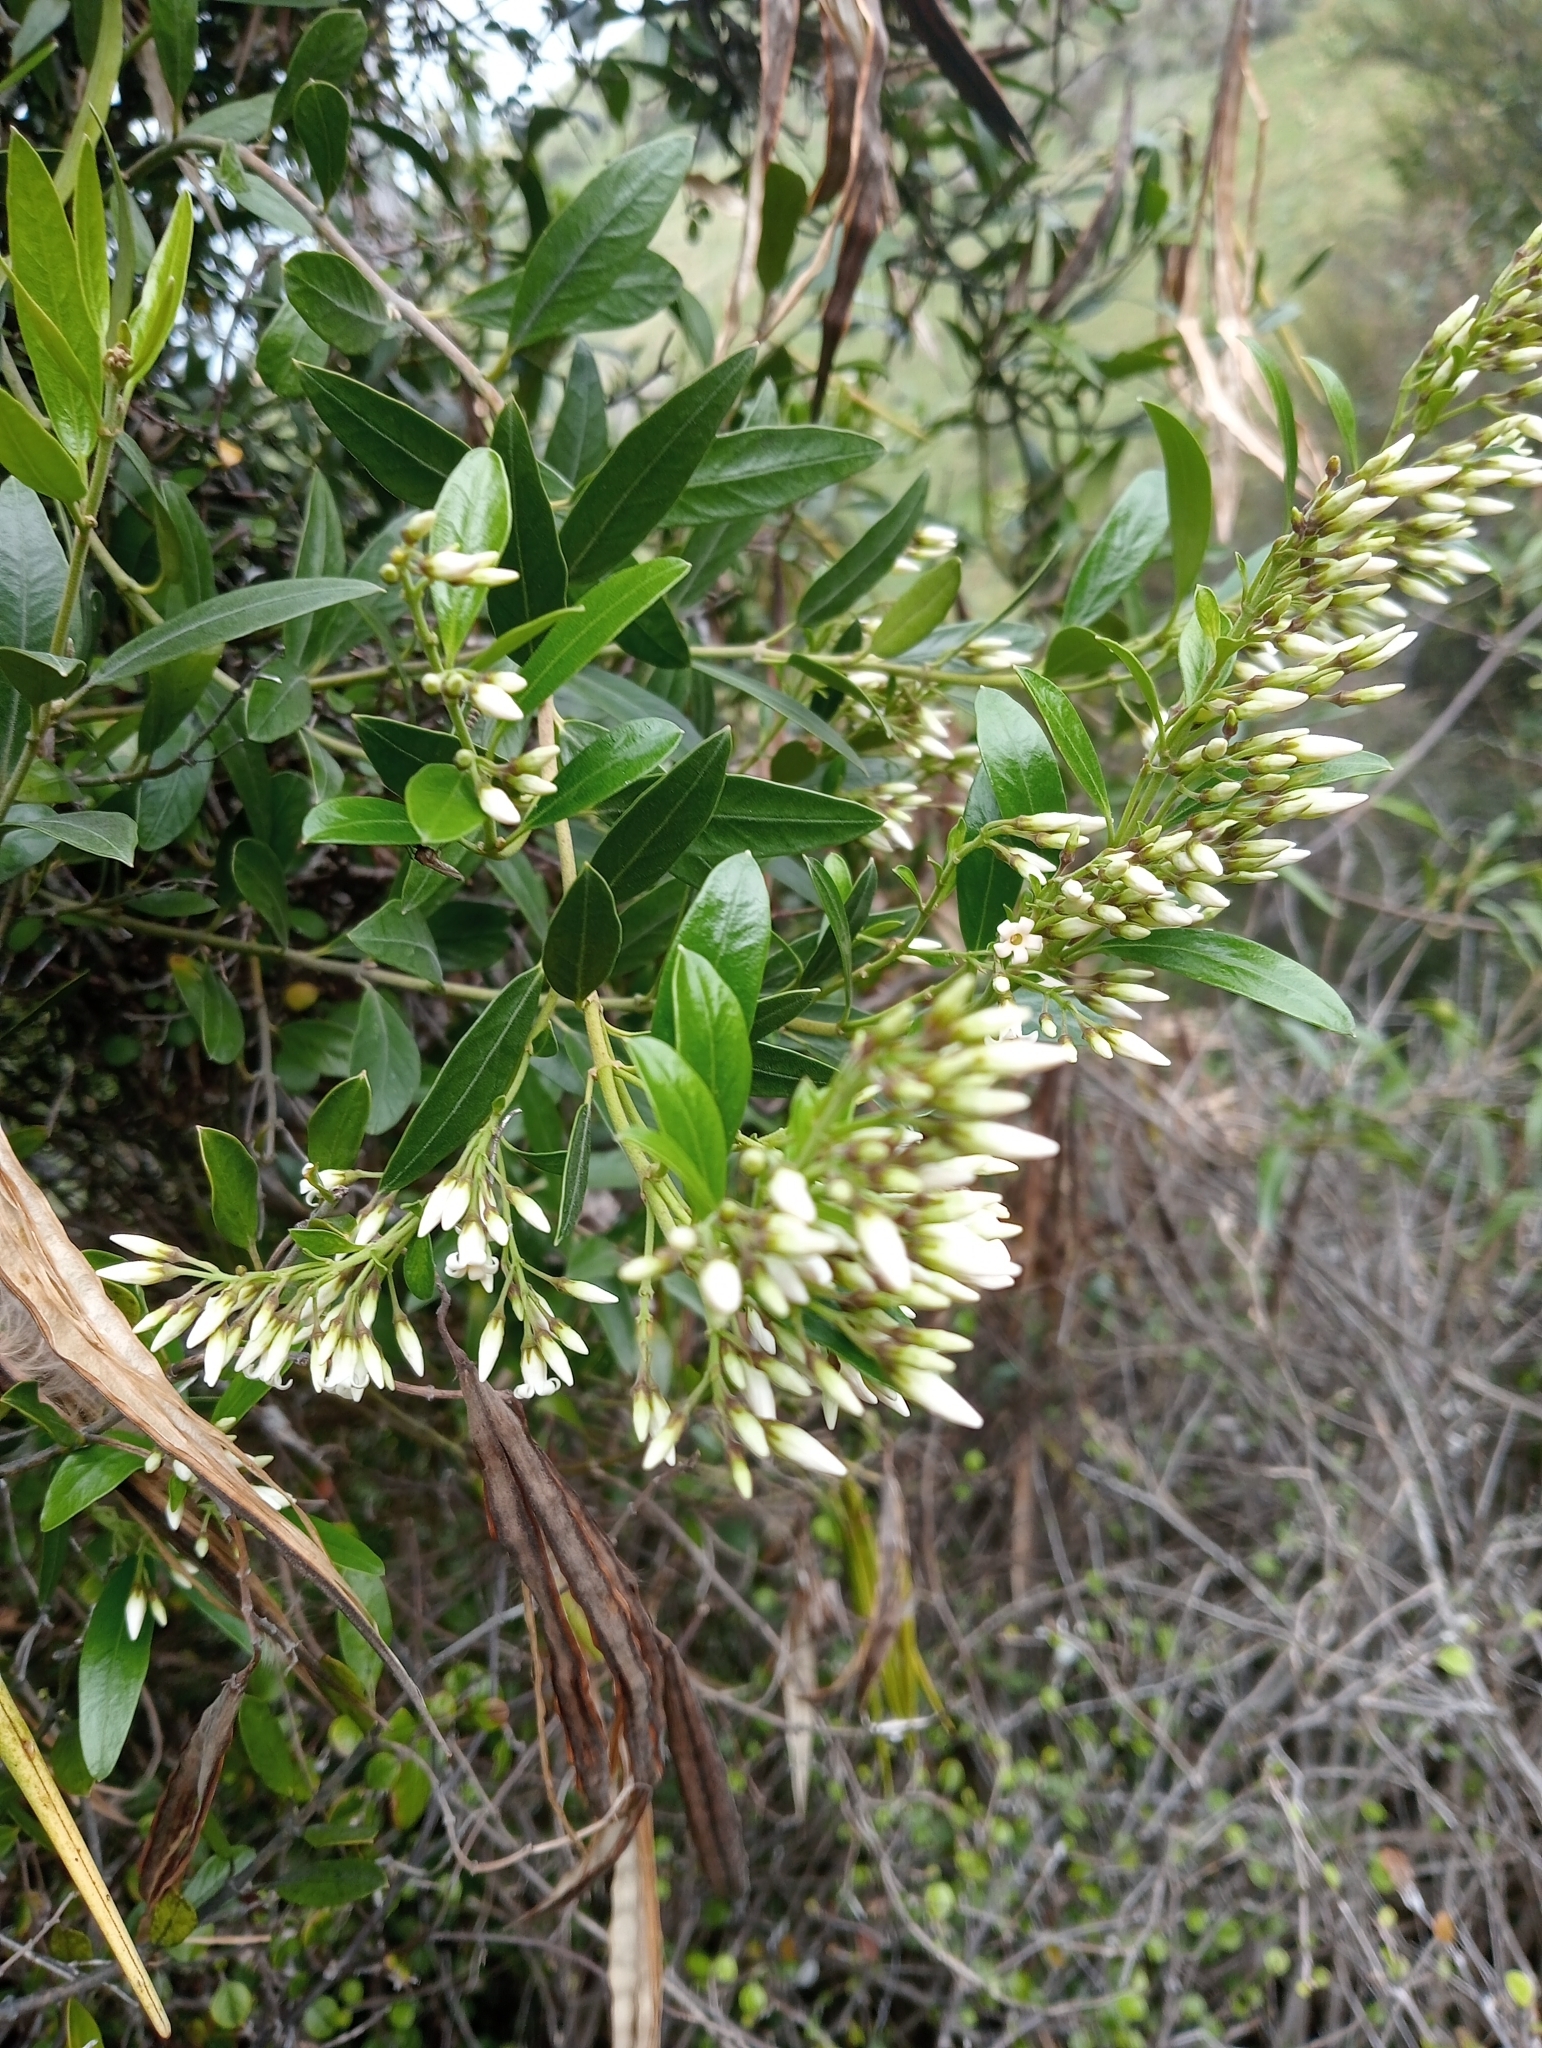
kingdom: Plantae
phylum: Tracheophyta
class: Magnoliopsida
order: Gentianales
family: Apocynaceae
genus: Parsonsia
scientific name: Parsonsia heterophylla
